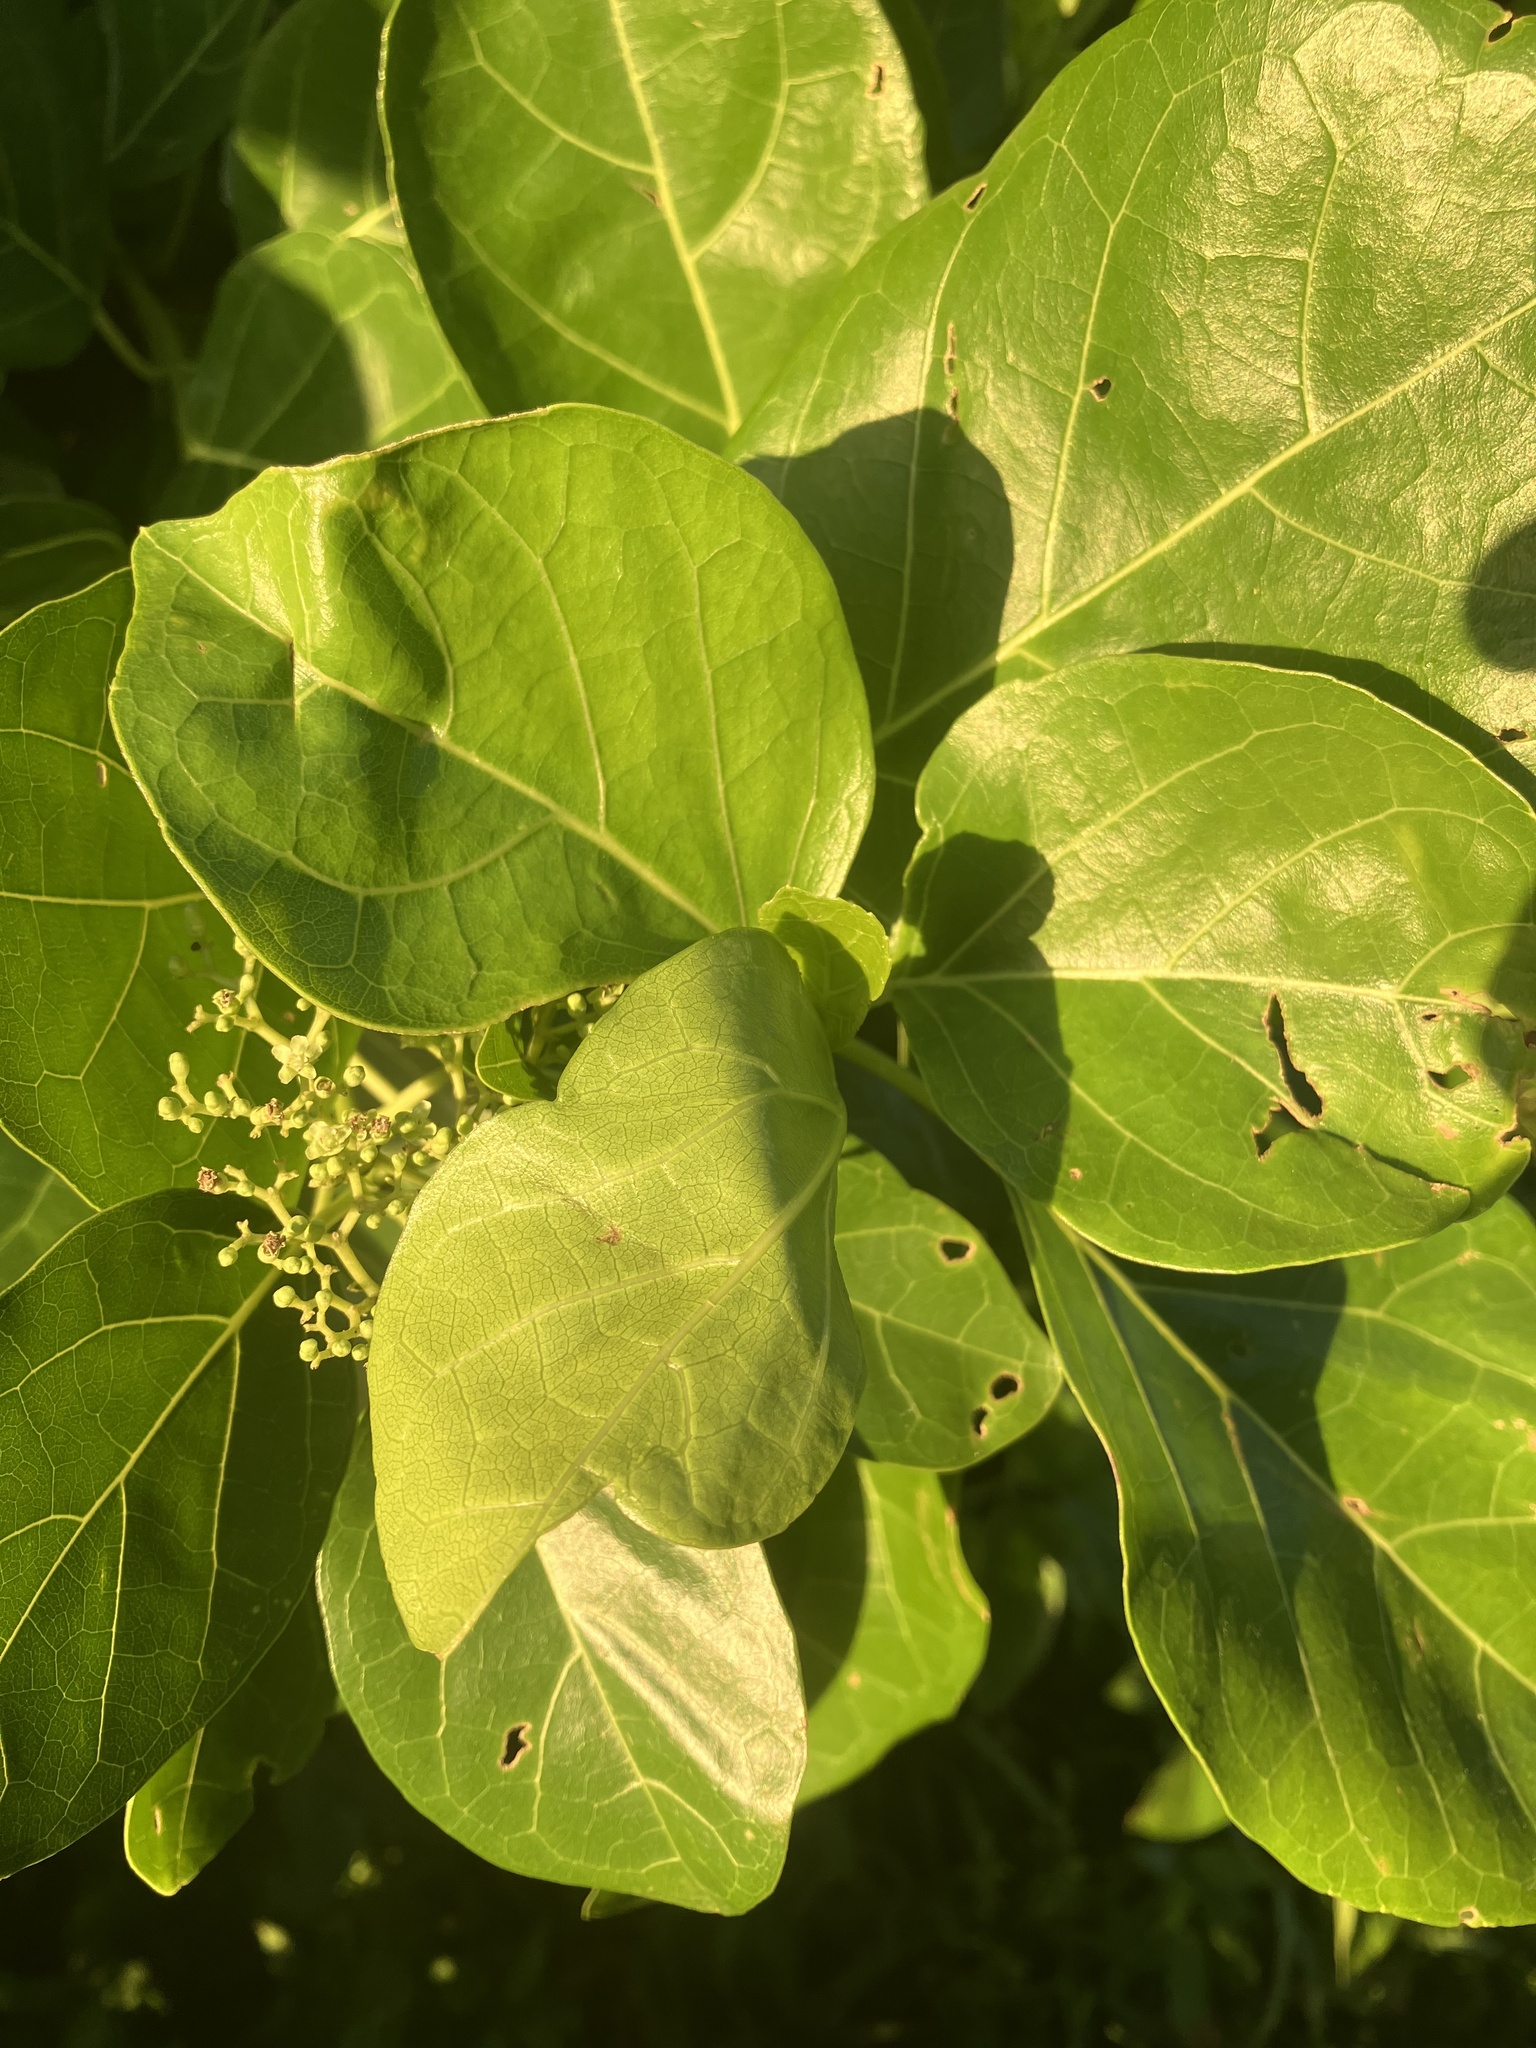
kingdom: Plantae
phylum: Tracheophyta
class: Magnoliopsida
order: Lamiales
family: Lamiaceae
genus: Premna
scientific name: Premna serratifolia
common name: Bastard guelder
